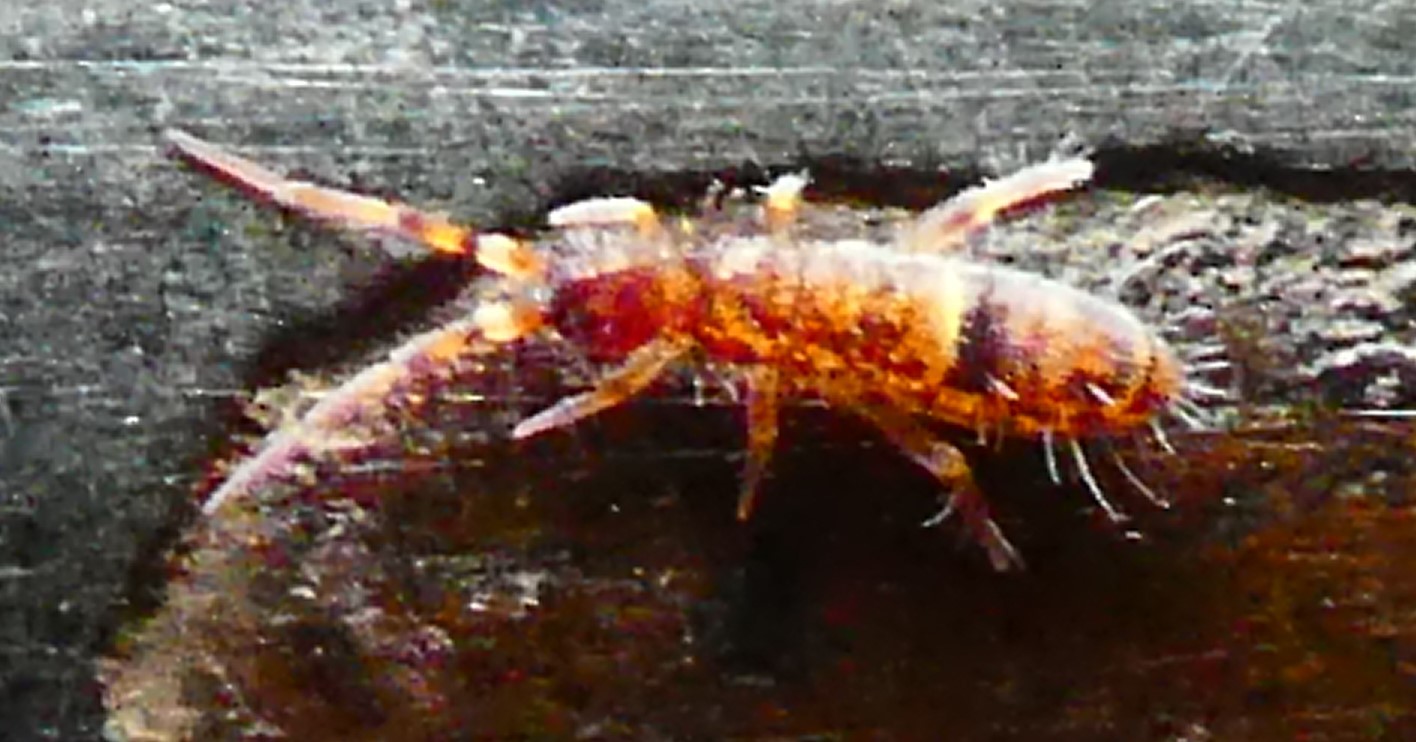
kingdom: Animalia
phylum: Arthropoda
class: Collembola
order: Entomobryomorpha
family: Orchesellidae
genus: Orchesella
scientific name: Orchesella cincta
